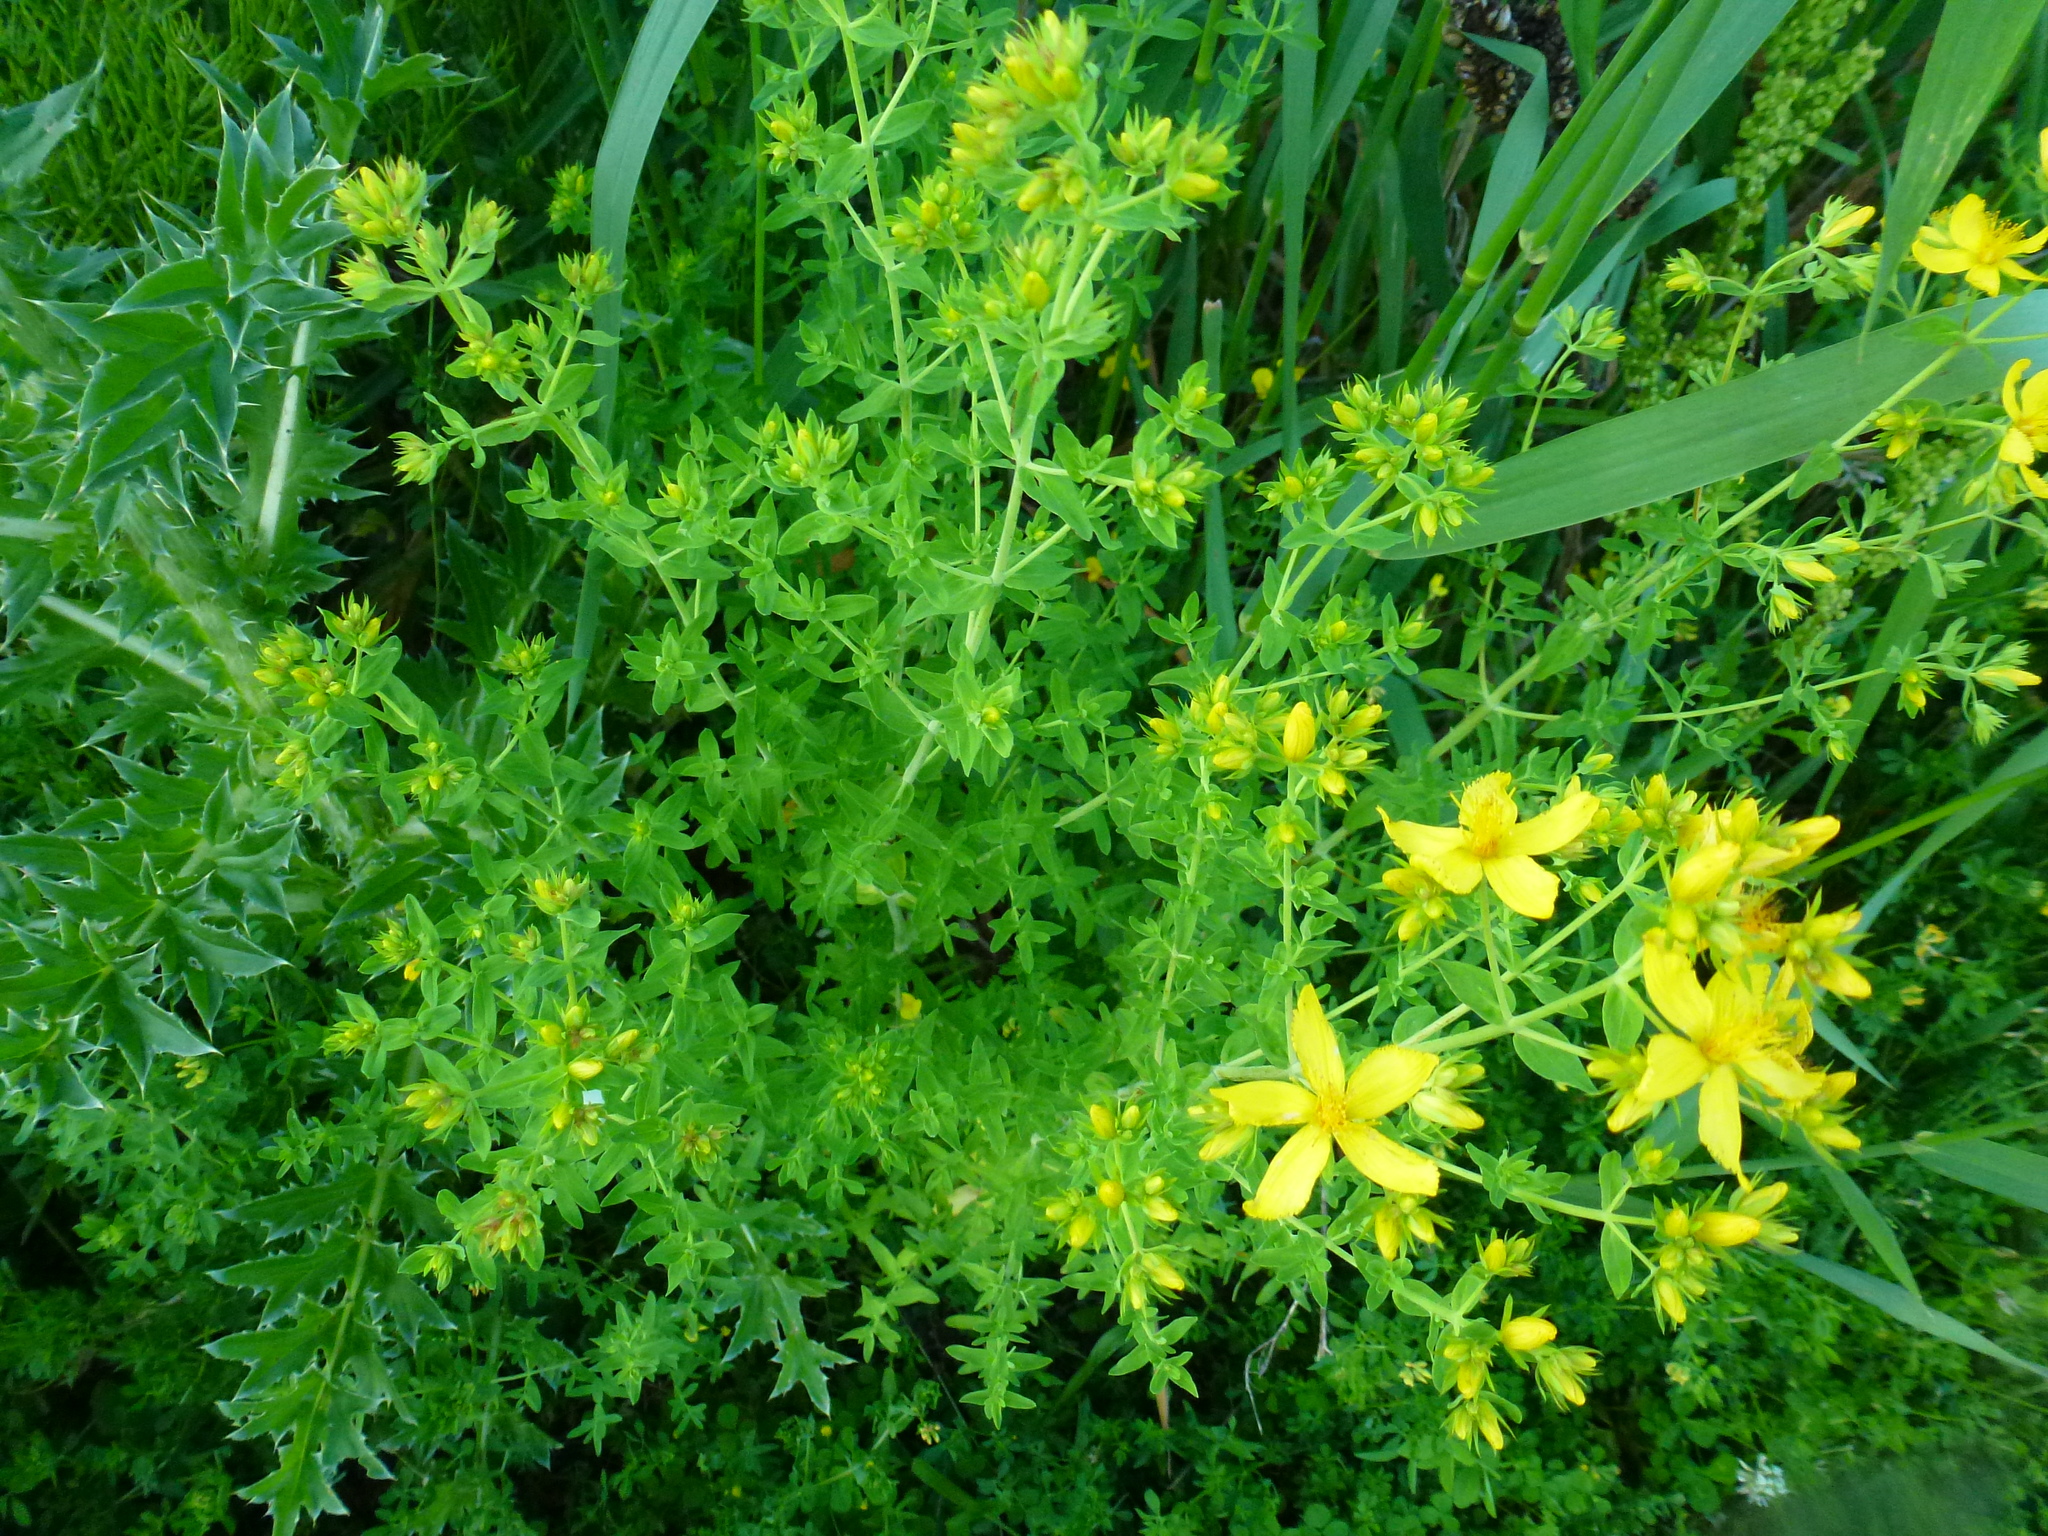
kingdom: Plantae
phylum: Tracheophyta
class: Magnoliopsida
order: Malpighiales
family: Hypericaceae
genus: Hypericum
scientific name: Hypericum perforatum
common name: Common st. johnswort
